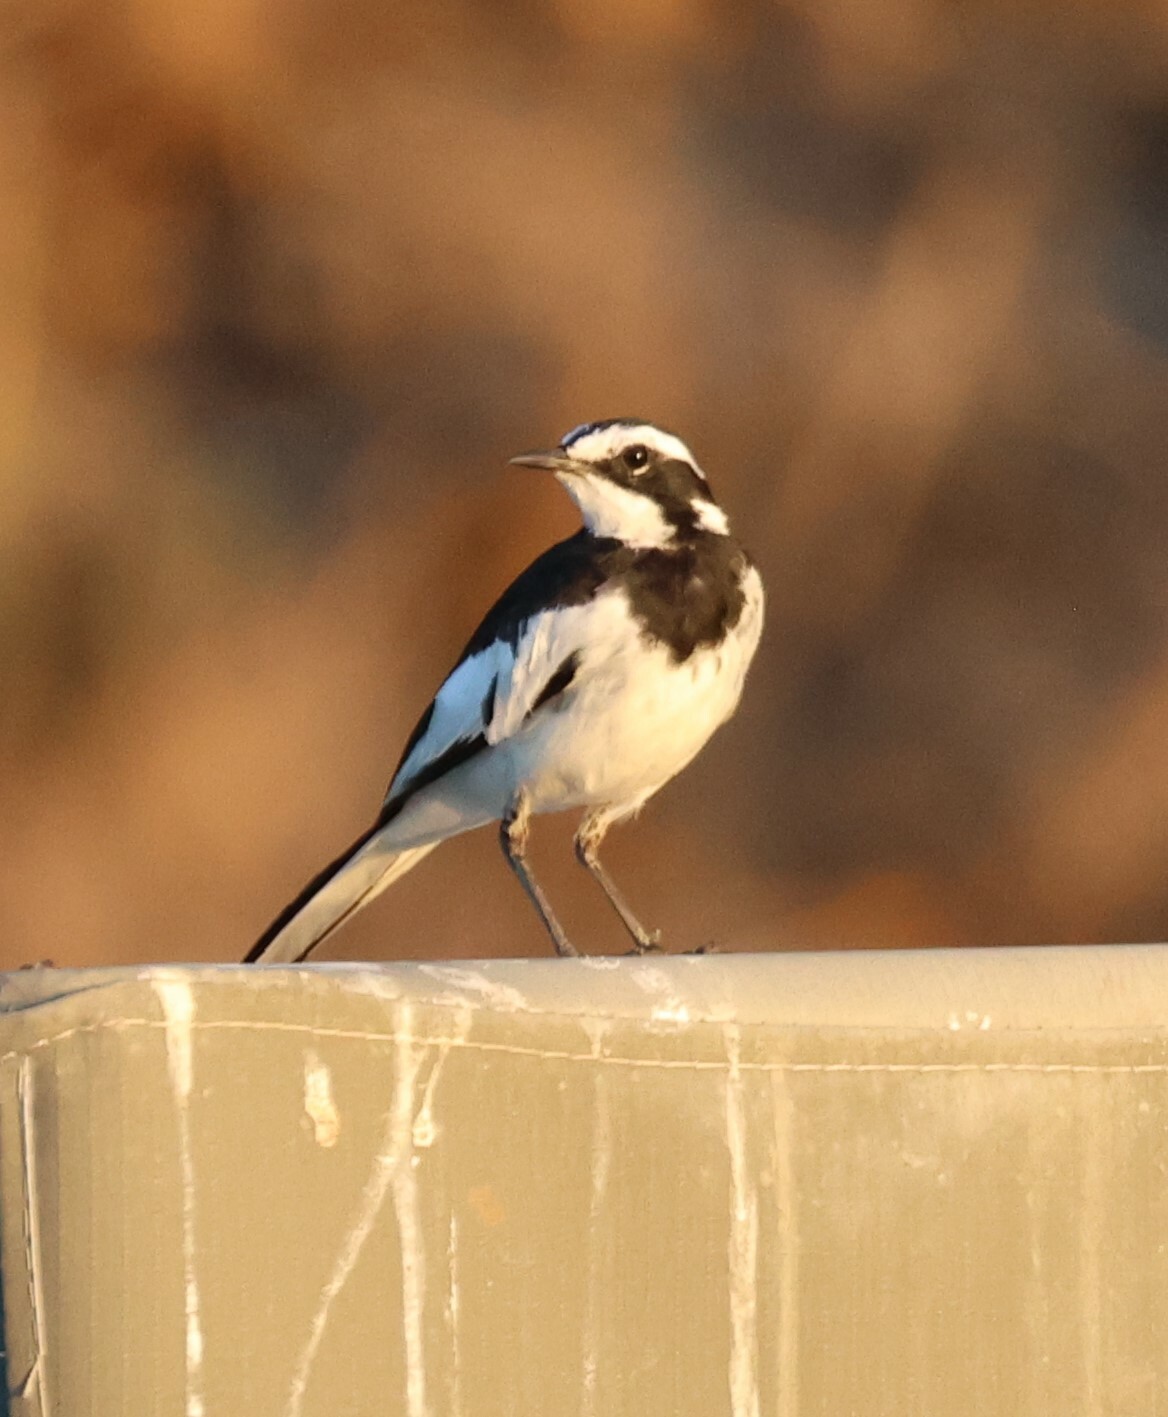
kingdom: Animalia
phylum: Chordata
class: Aves
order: Passeriformes
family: Motacillidae
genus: Motacilla
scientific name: Motacilla aguimp
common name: African pied wagtail
